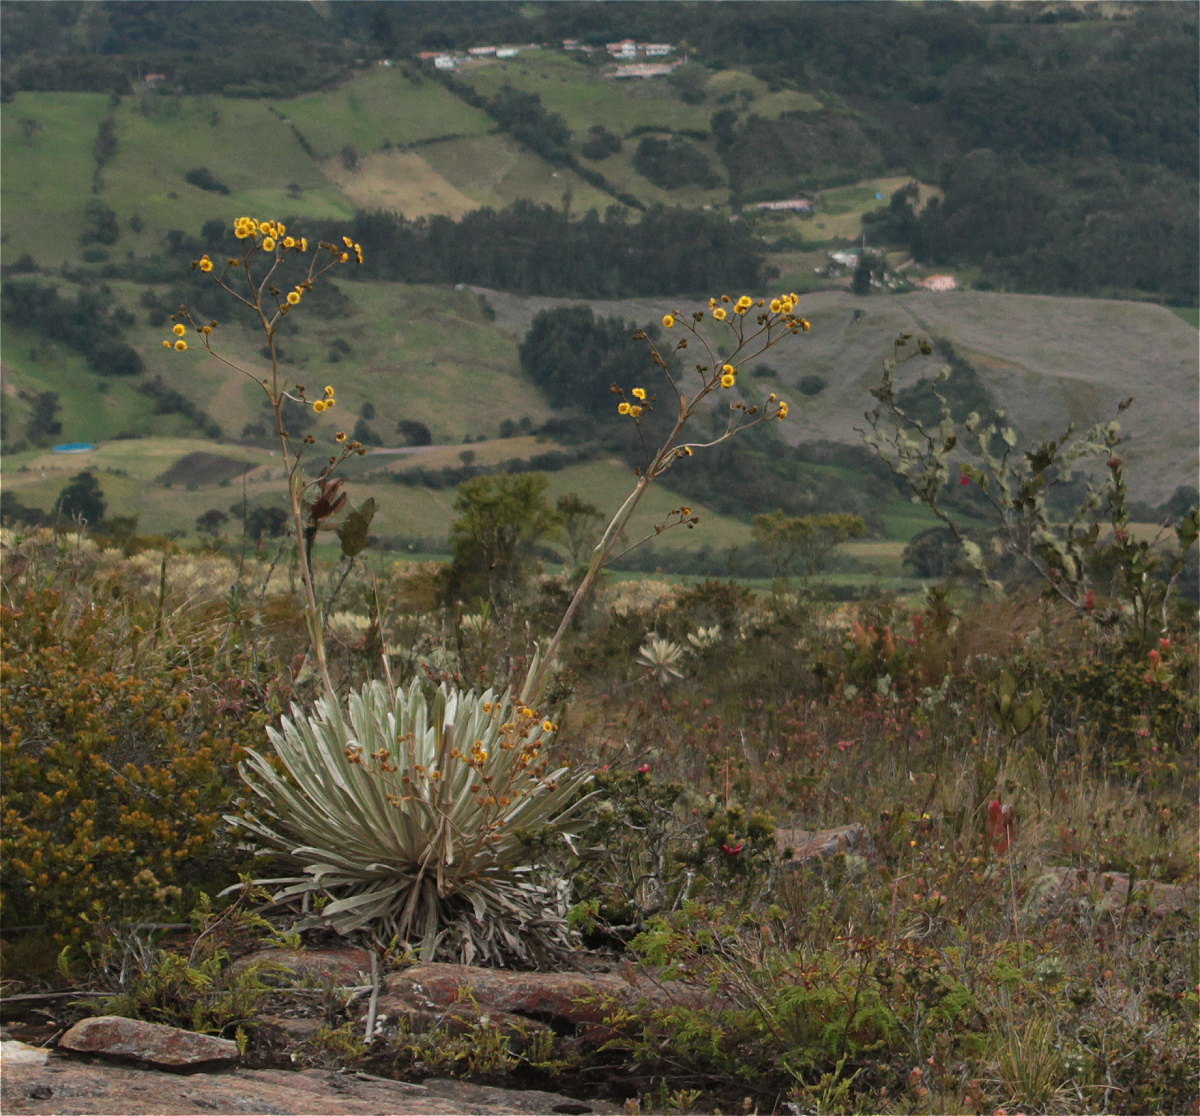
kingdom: Plantae
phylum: Tracheophyta
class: Magnoliopsida
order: Asterales
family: Asteraceae
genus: Espeletia
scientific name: Espeletia argentea
